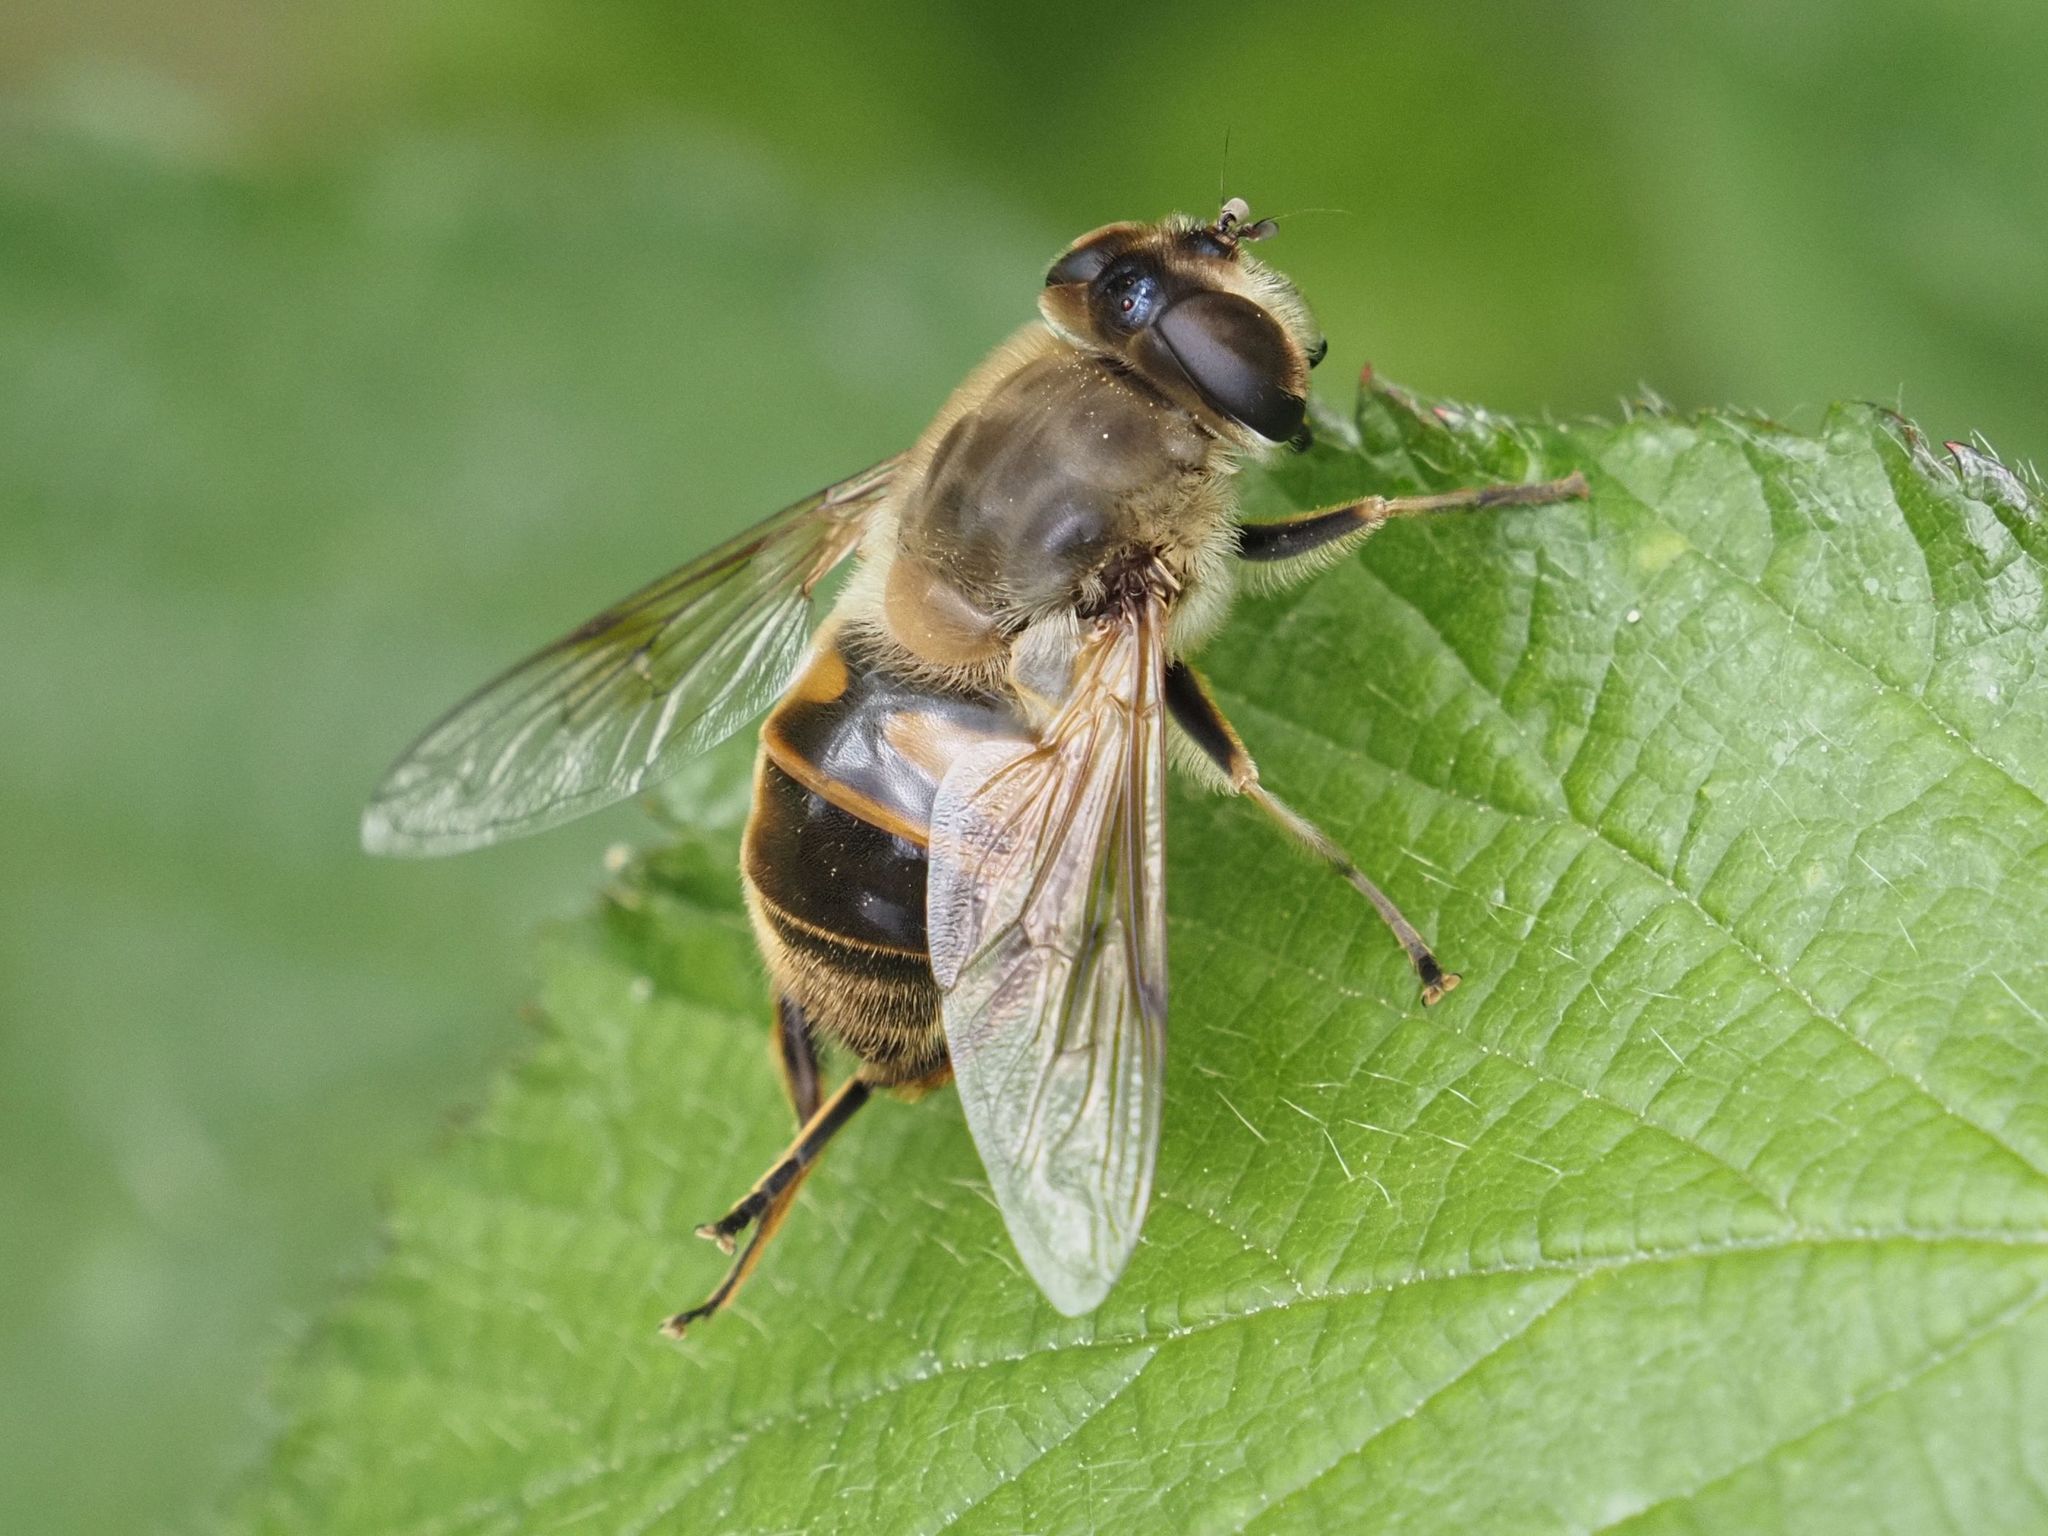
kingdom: Animalia
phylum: Arthropoda
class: Insecta
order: Diptera
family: Syrphidae
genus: Eristalis
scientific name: Eristalis tenax
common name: Drone fly
